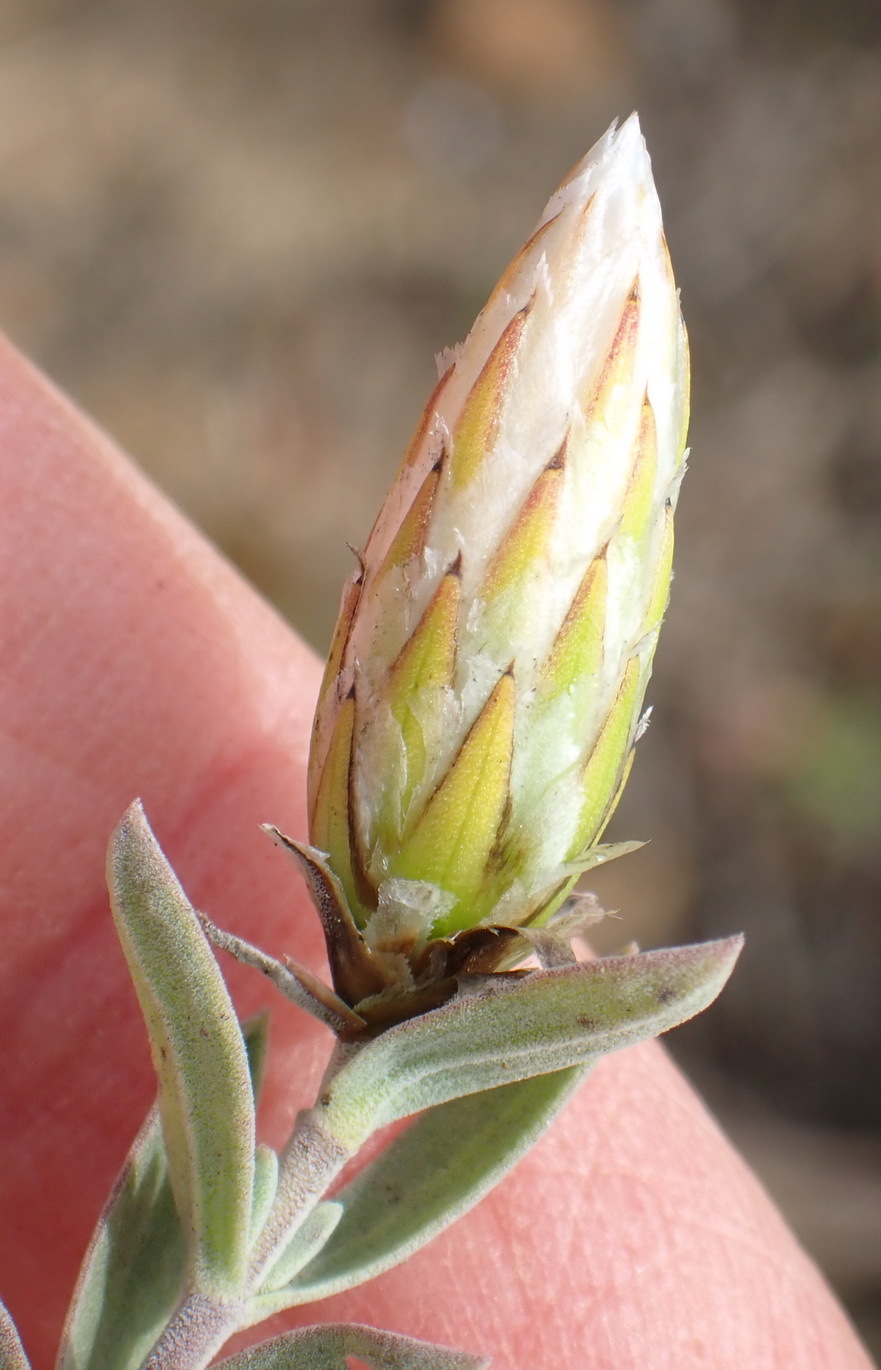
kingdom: Plantae
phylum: Tracheophyta
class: Magnoliopsida
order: Asterales
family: Asteraceae
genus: Pteronia
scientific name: Pteronia membranacea
